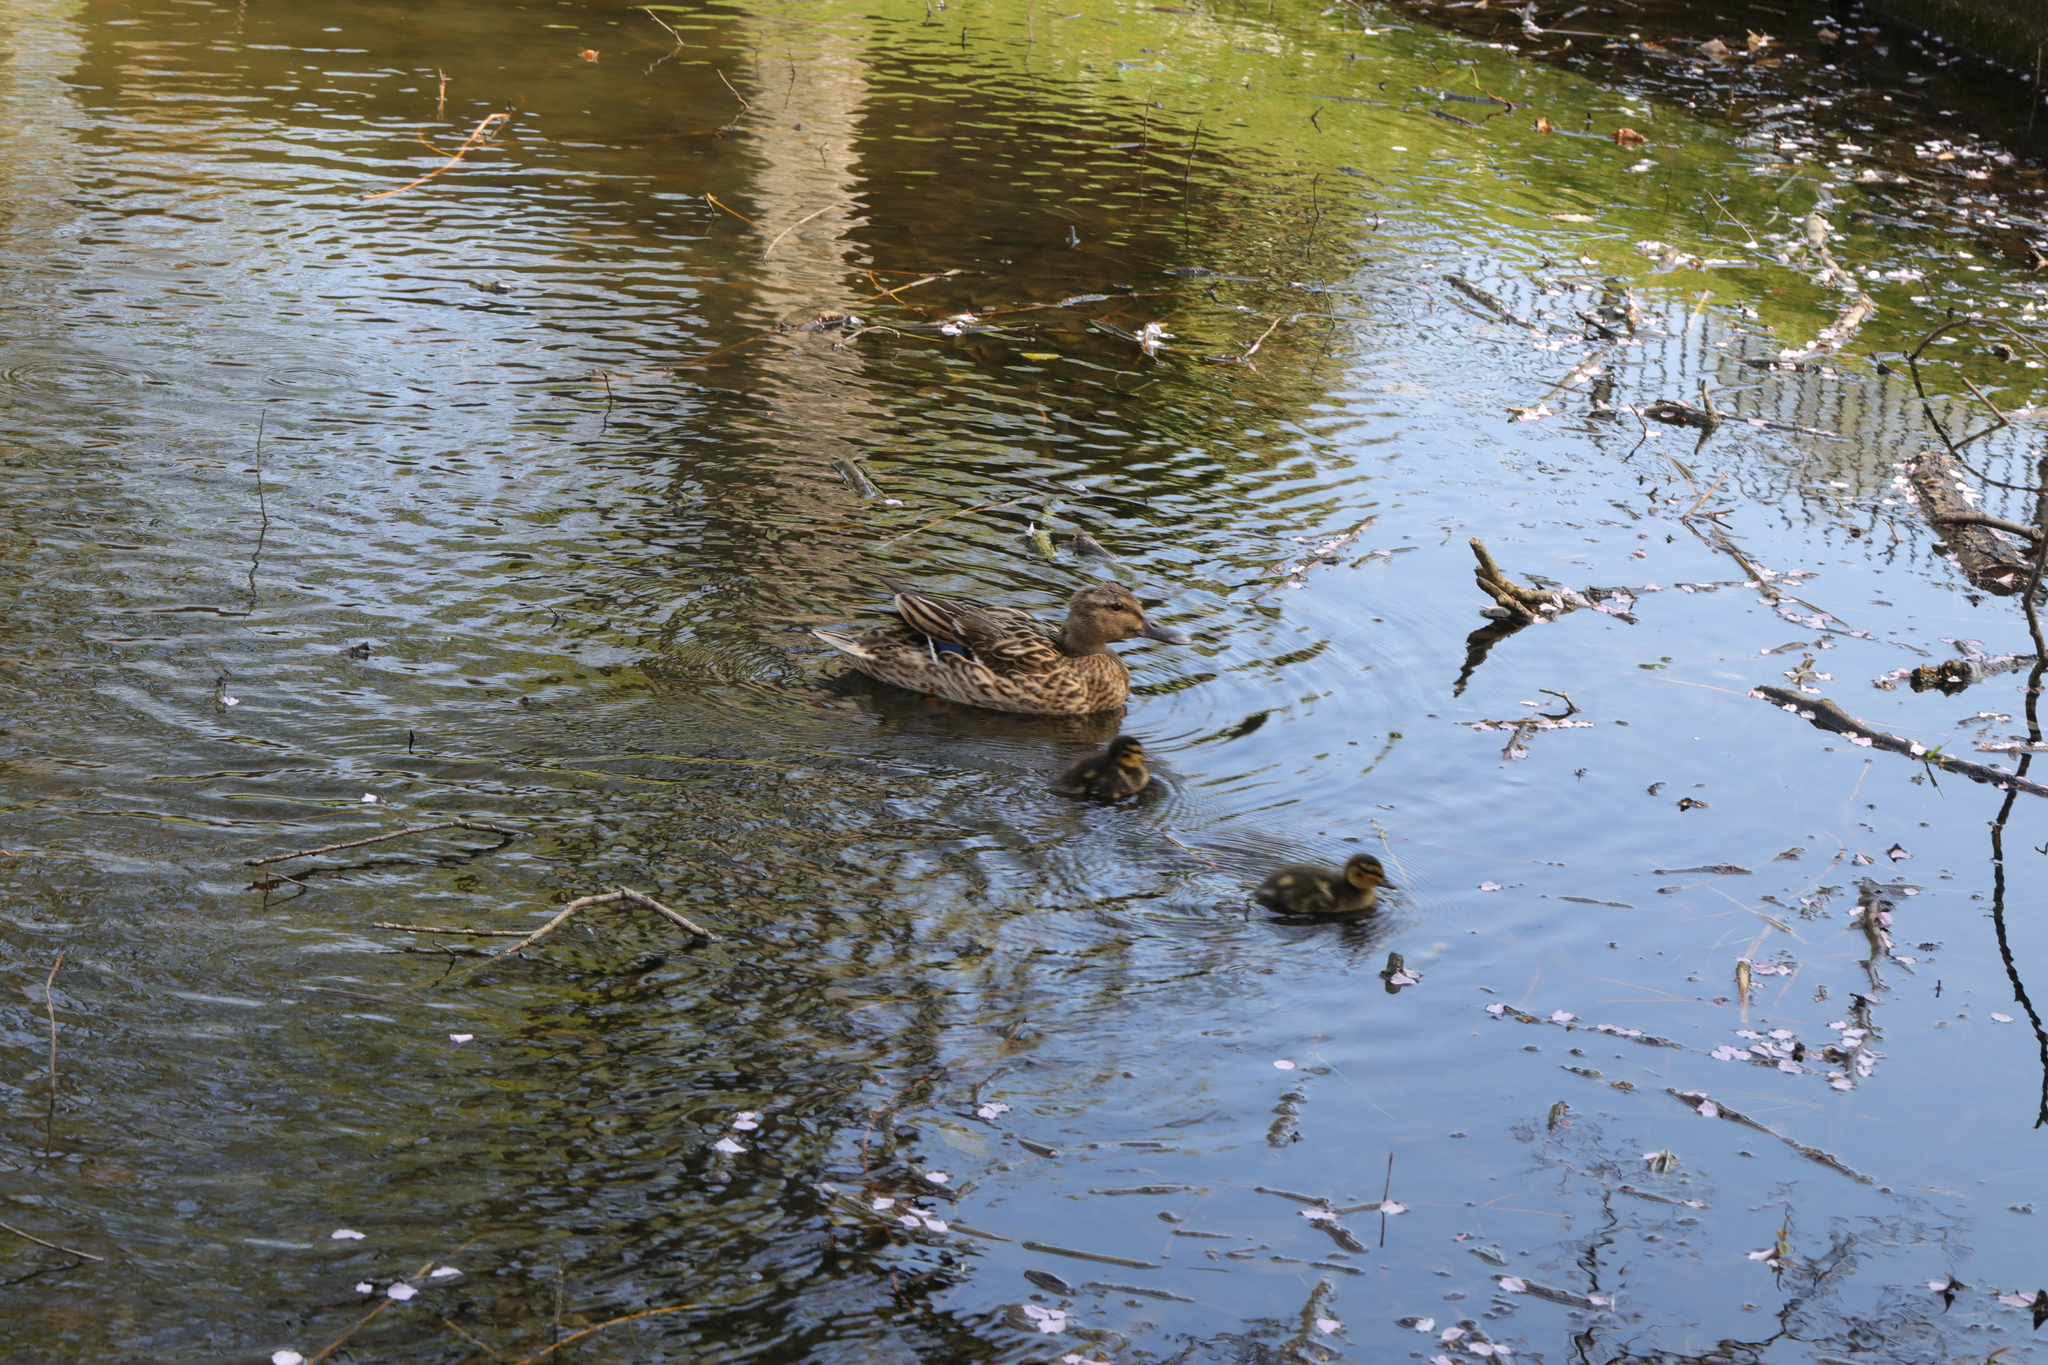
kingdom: Animalia
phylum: Chordata
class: Aves
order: Anseriformes
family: Anatidae
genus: Anas
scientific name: Anas platyrhynchos
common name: Mallard
